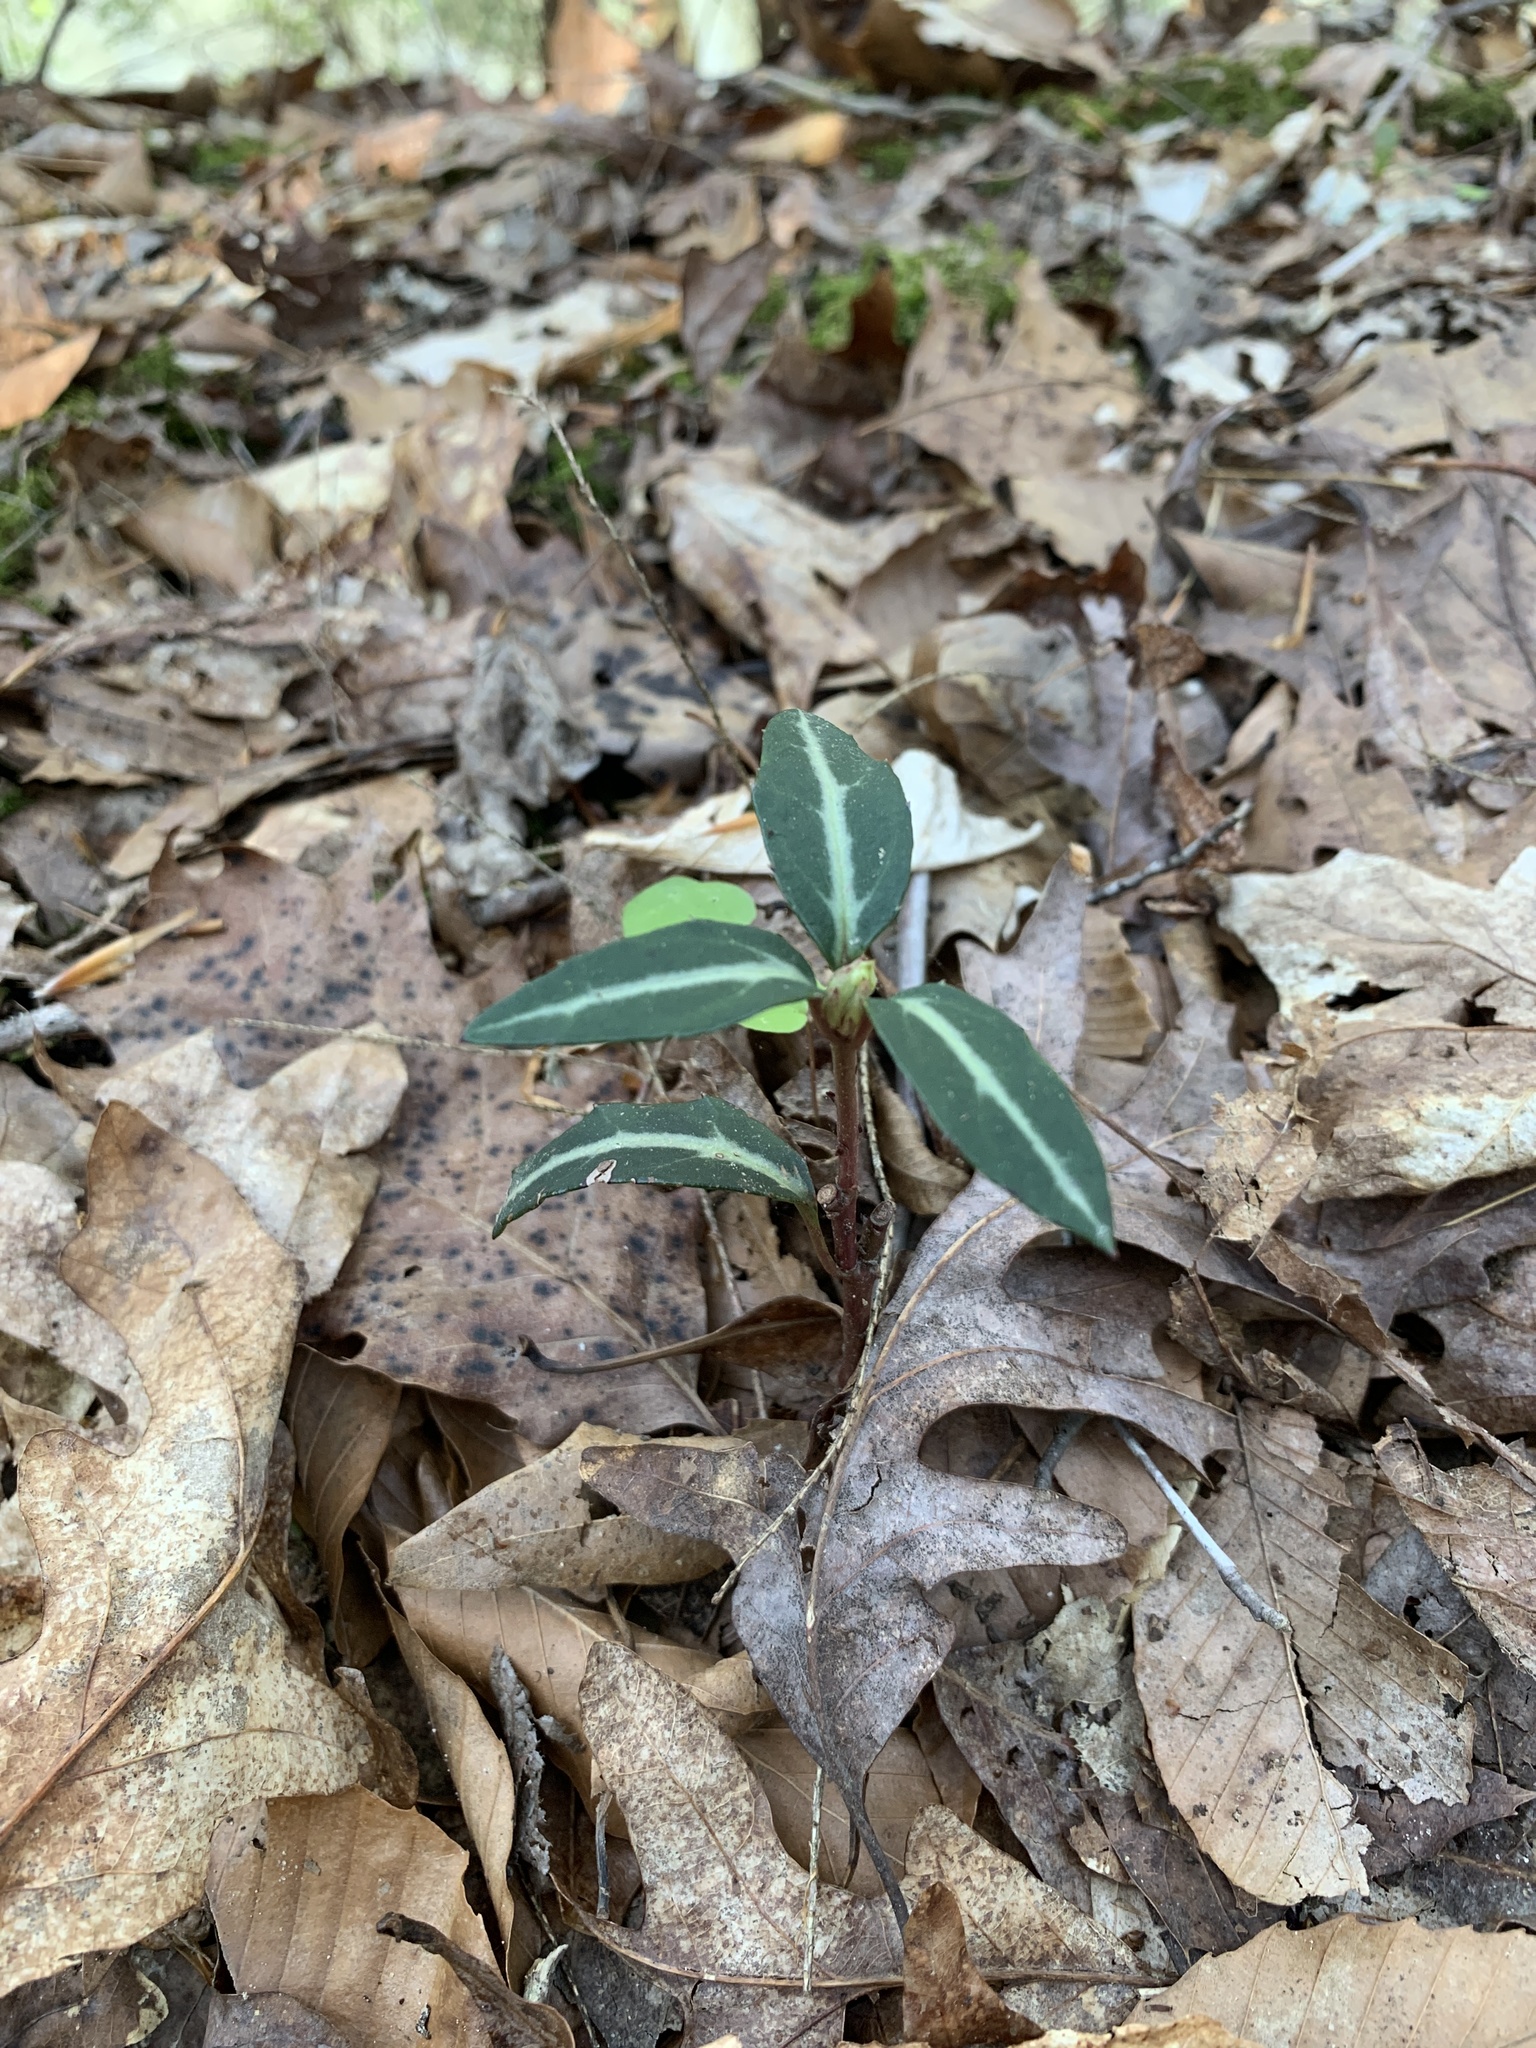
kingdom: Plantae
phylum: Tracheophyta
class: Magnoliopsida
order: Ericales
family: Ericaceae
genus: Chimaphila
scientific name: Chimaphila maculata
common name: Spotted pipsissewa
